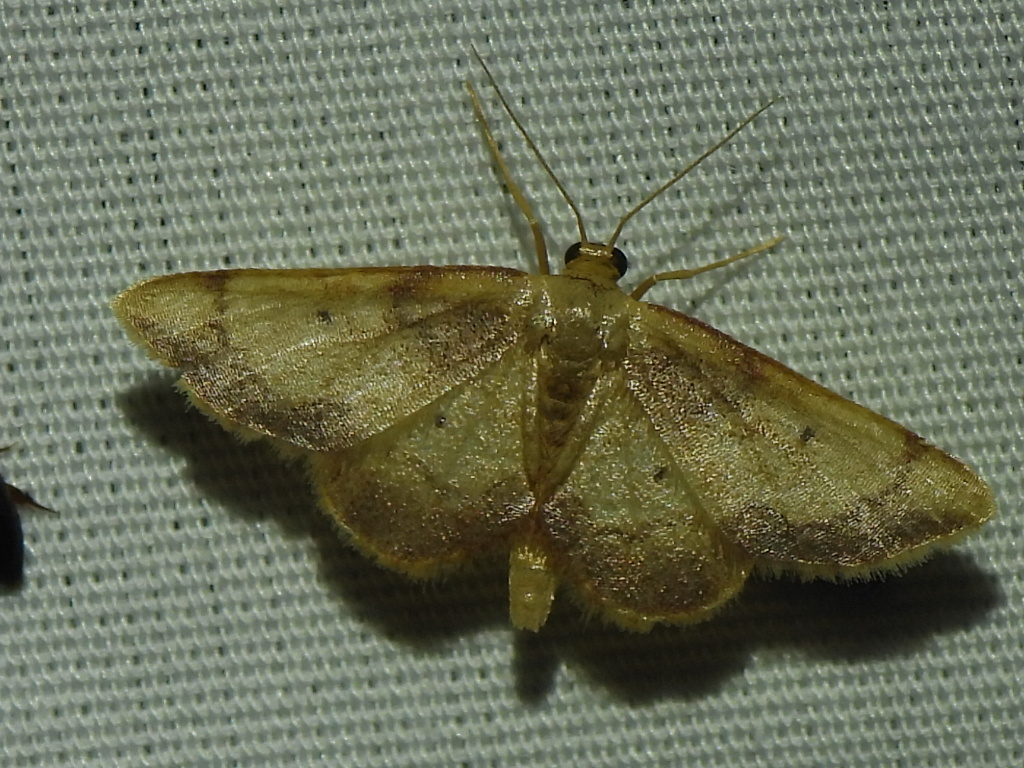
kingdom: Animalia
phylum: Arthropoda
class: Insecta
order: Lepidoptera
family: Geometridae
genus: Idaea
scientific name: Idaea demissaria
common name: Red-bordered wave
